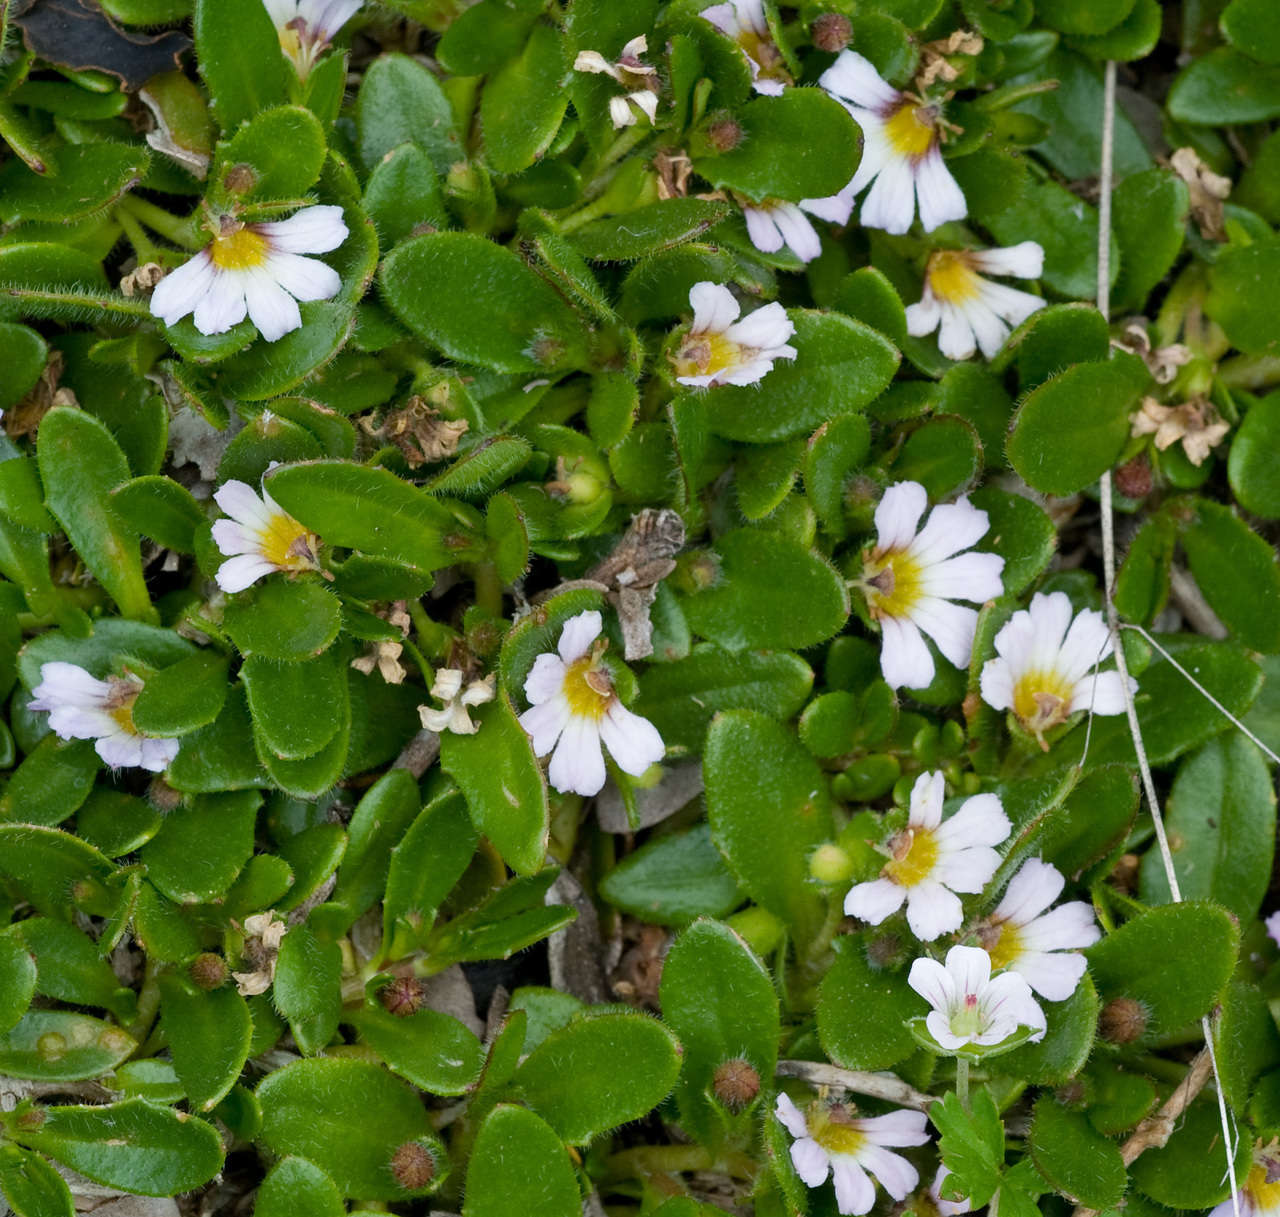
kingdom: Plantae
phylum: Tracheophyta
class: Magnoliopsida
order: Asterales
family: Goodeniaceae
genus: Scaevola
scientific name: Scaevola hookeri
